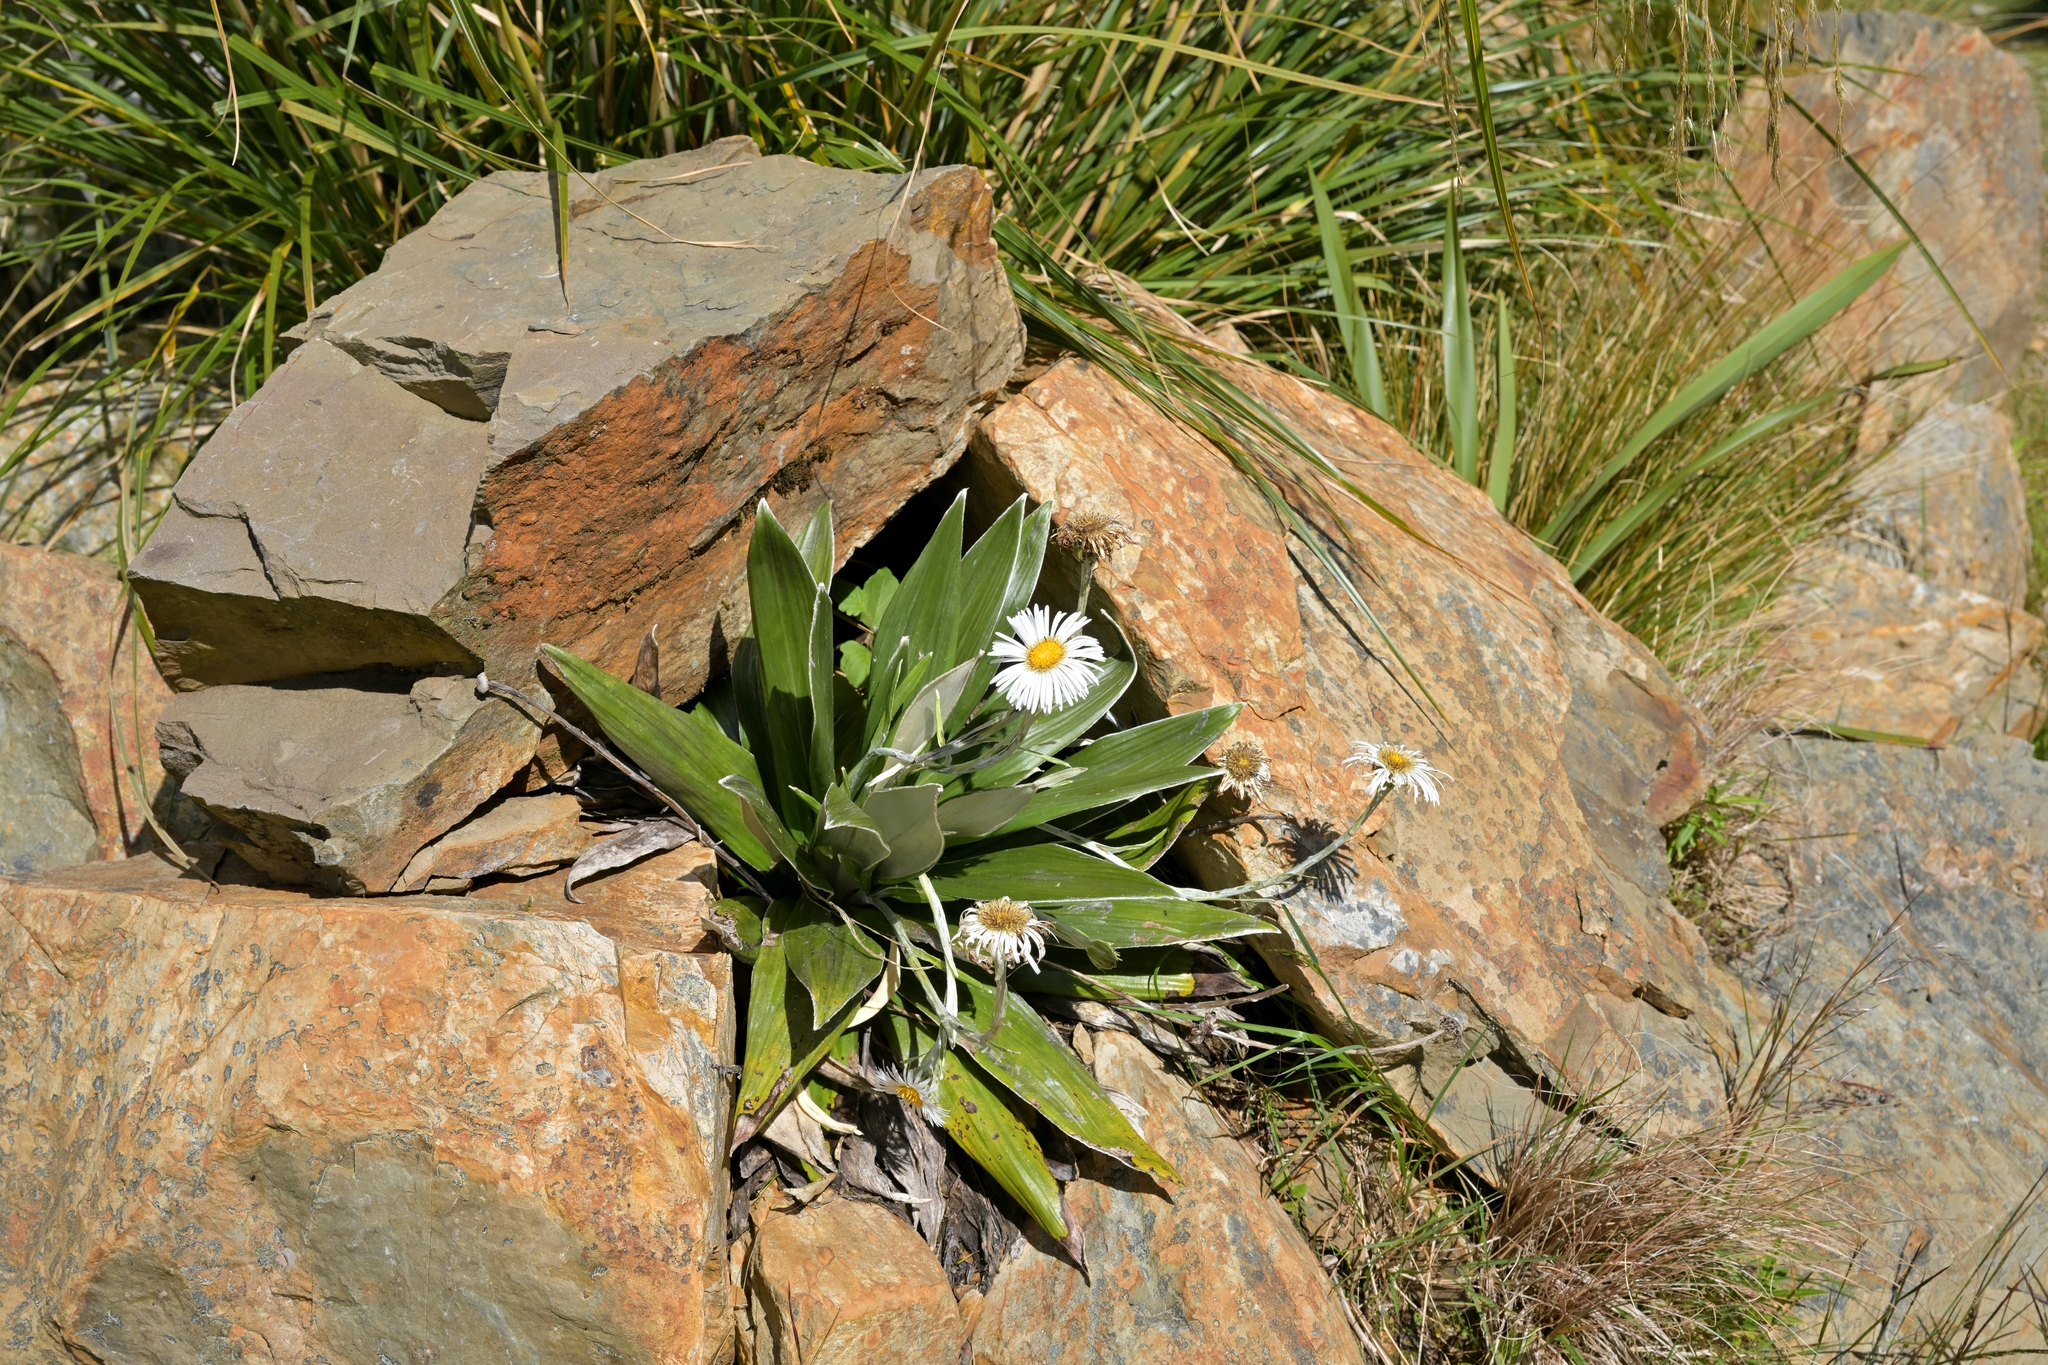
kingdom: Plantae
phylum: Tracheophyta
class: Magnoliopsida
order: Asterales
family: Asteraceae
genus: Celmisia
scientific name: Celmisia semicordata
